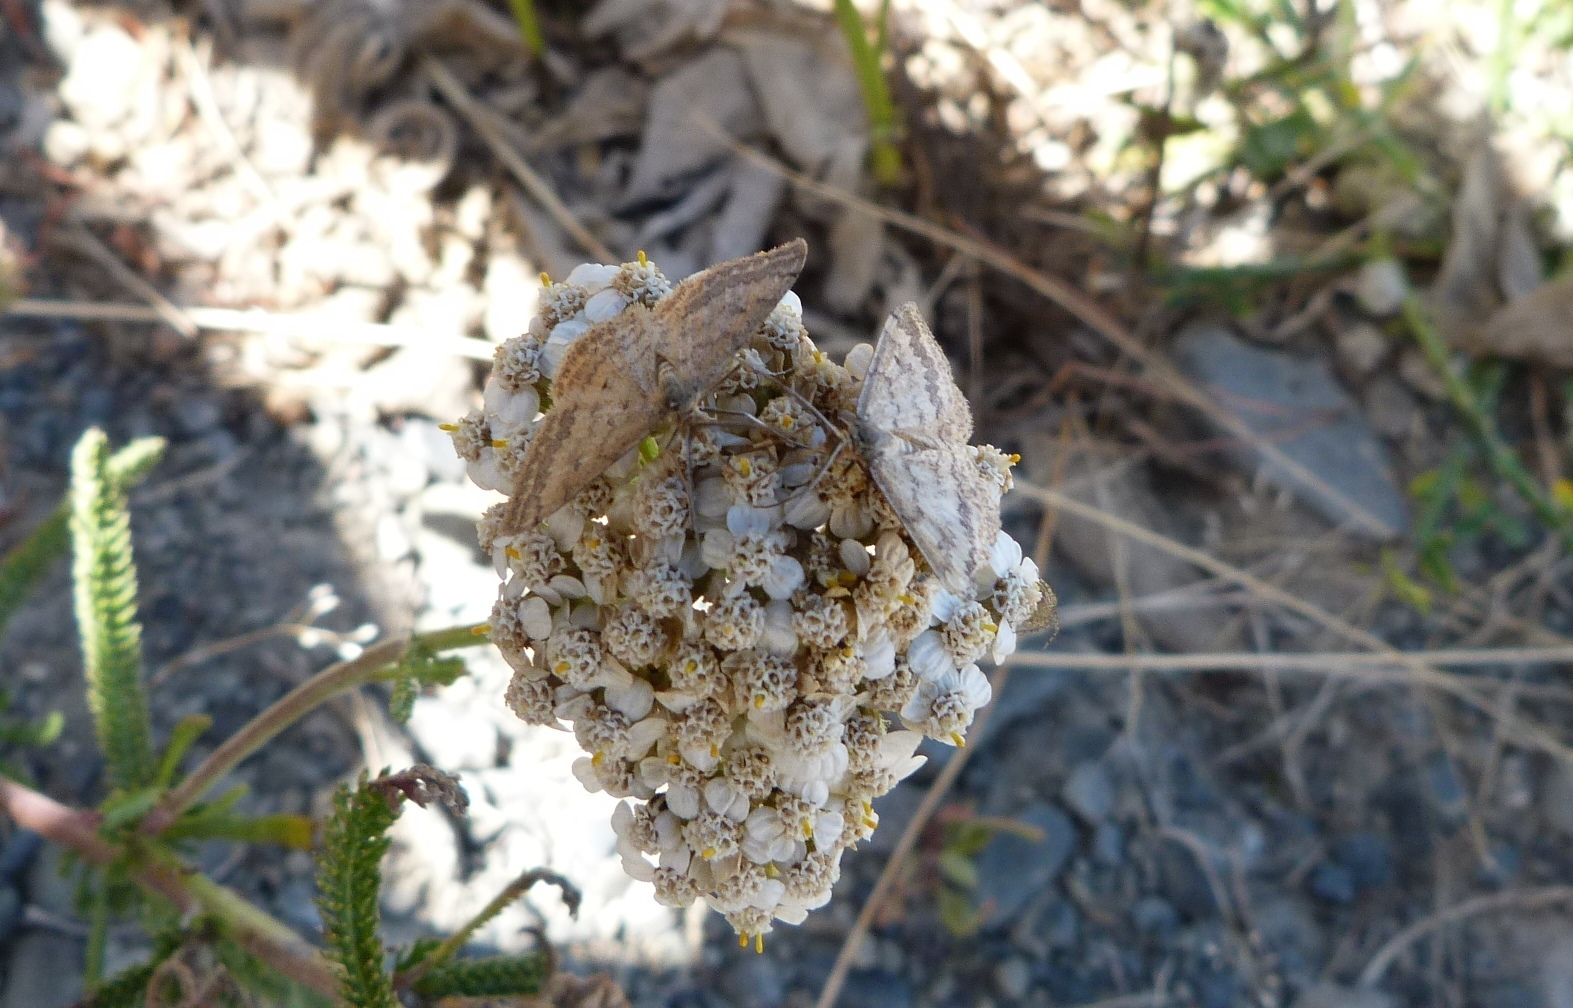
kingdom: Animalia
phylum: Arthropoda
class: Insecta
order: Lepidoptera
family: Geometridae
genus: Scopula
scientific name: Scopula rubraria
